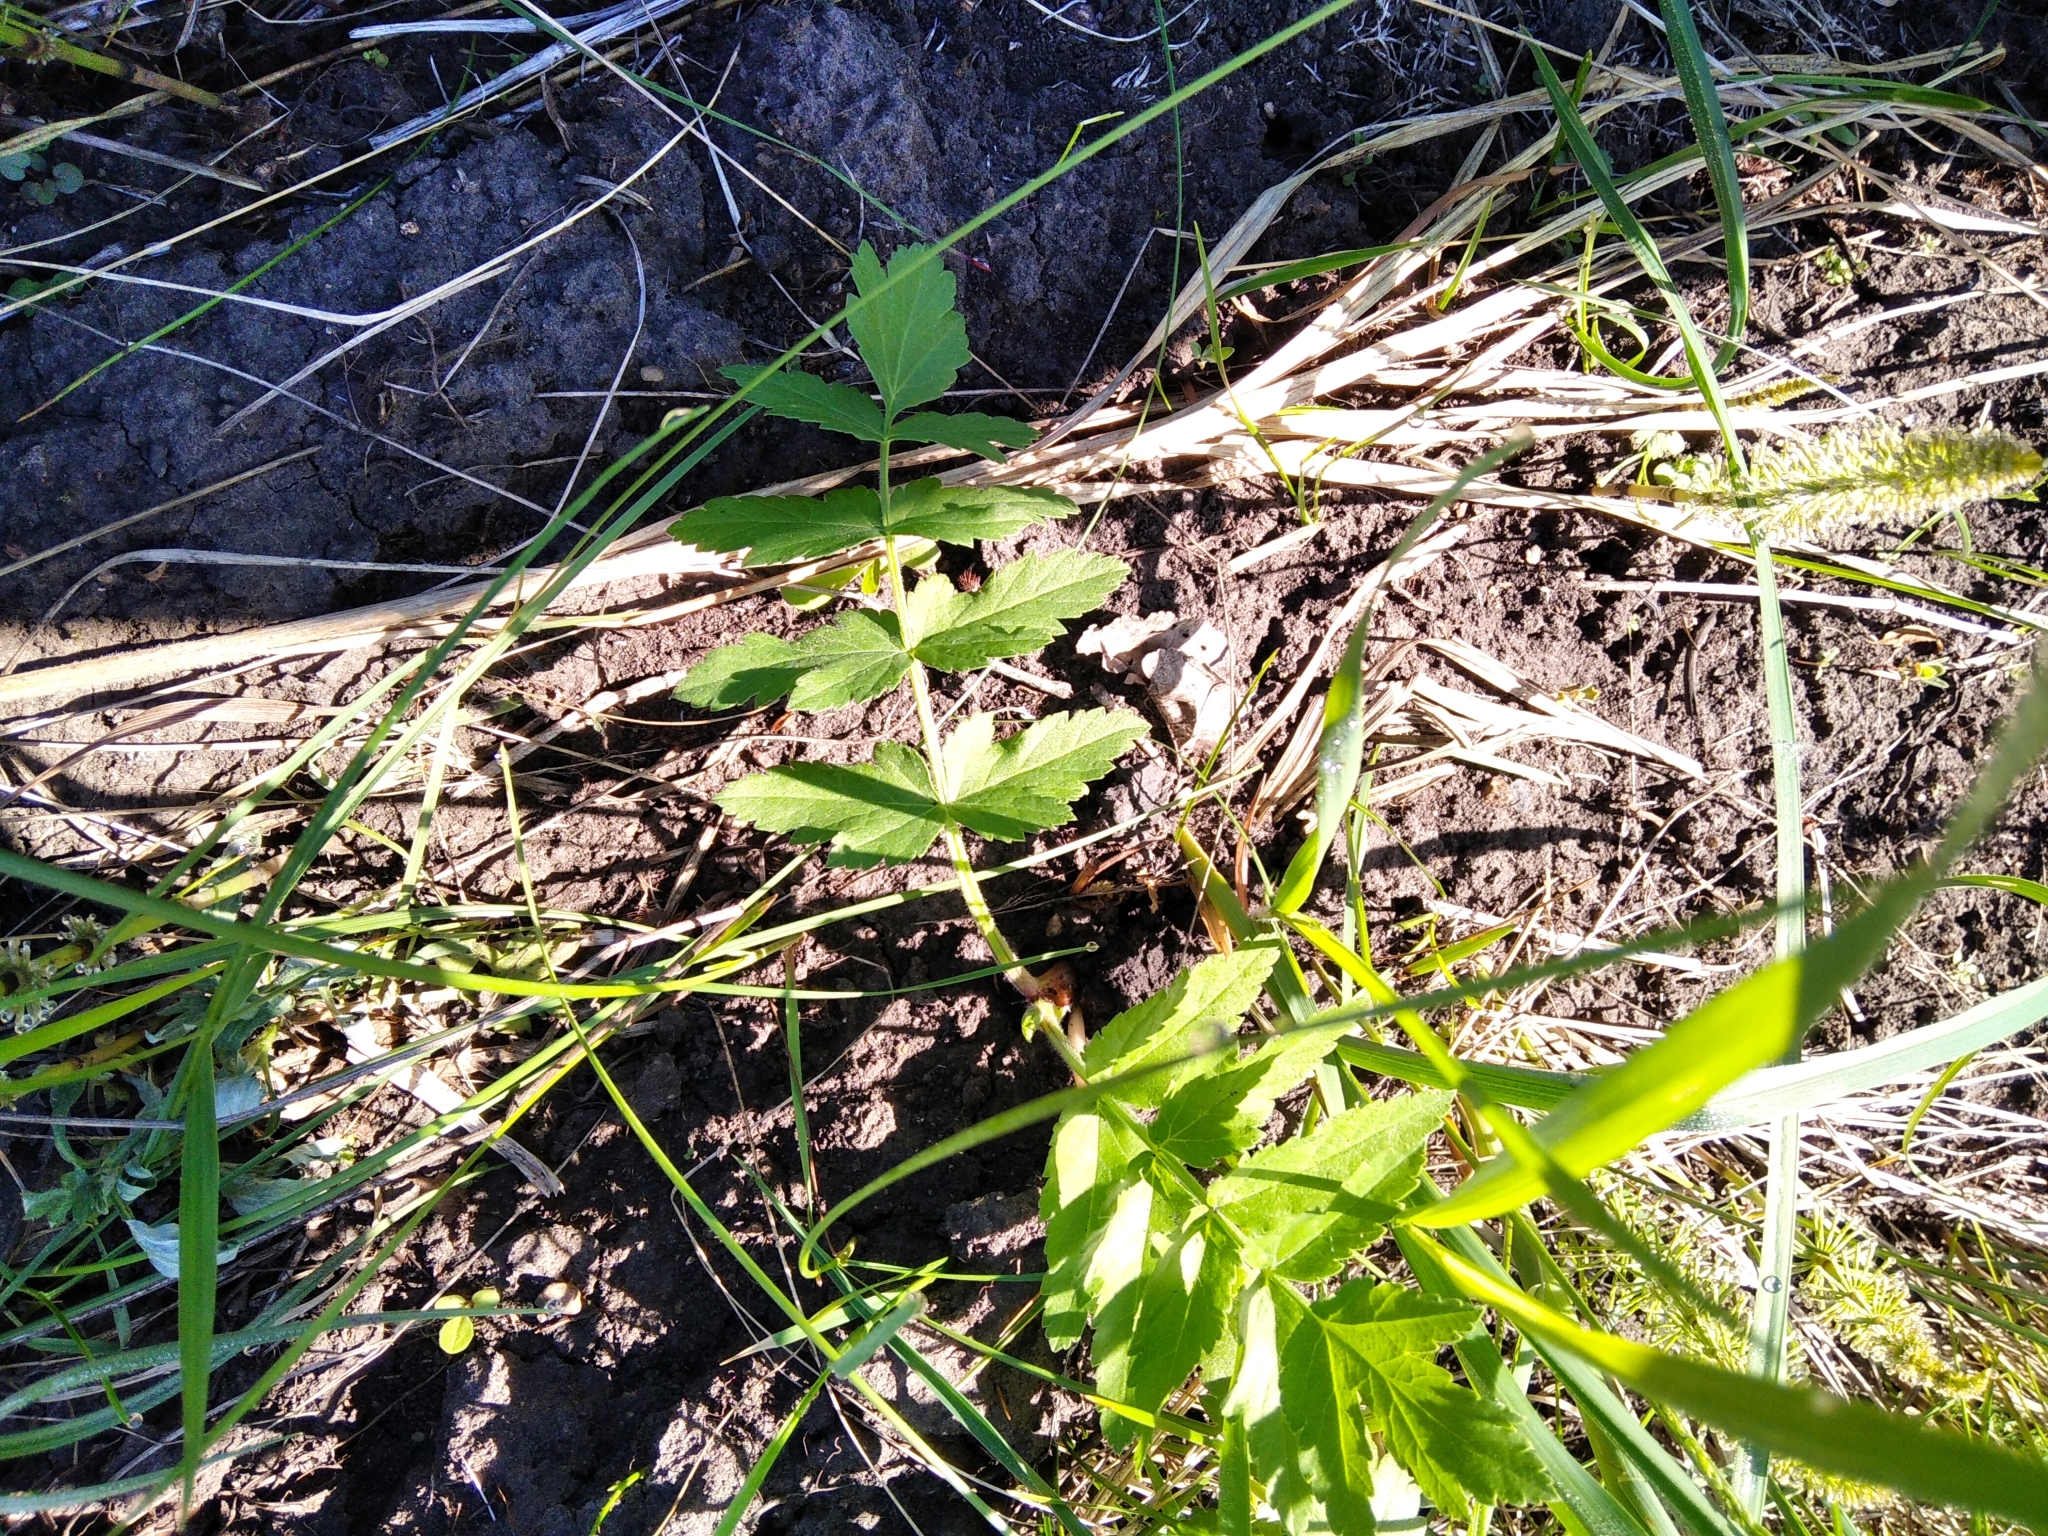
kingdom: Plantae
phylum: Tracheophyta
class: Magnoliopsida
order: Apiales
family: Apiaceae
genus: Pastinaca
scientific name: Pastinaca sativa
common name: Wild parsnip
